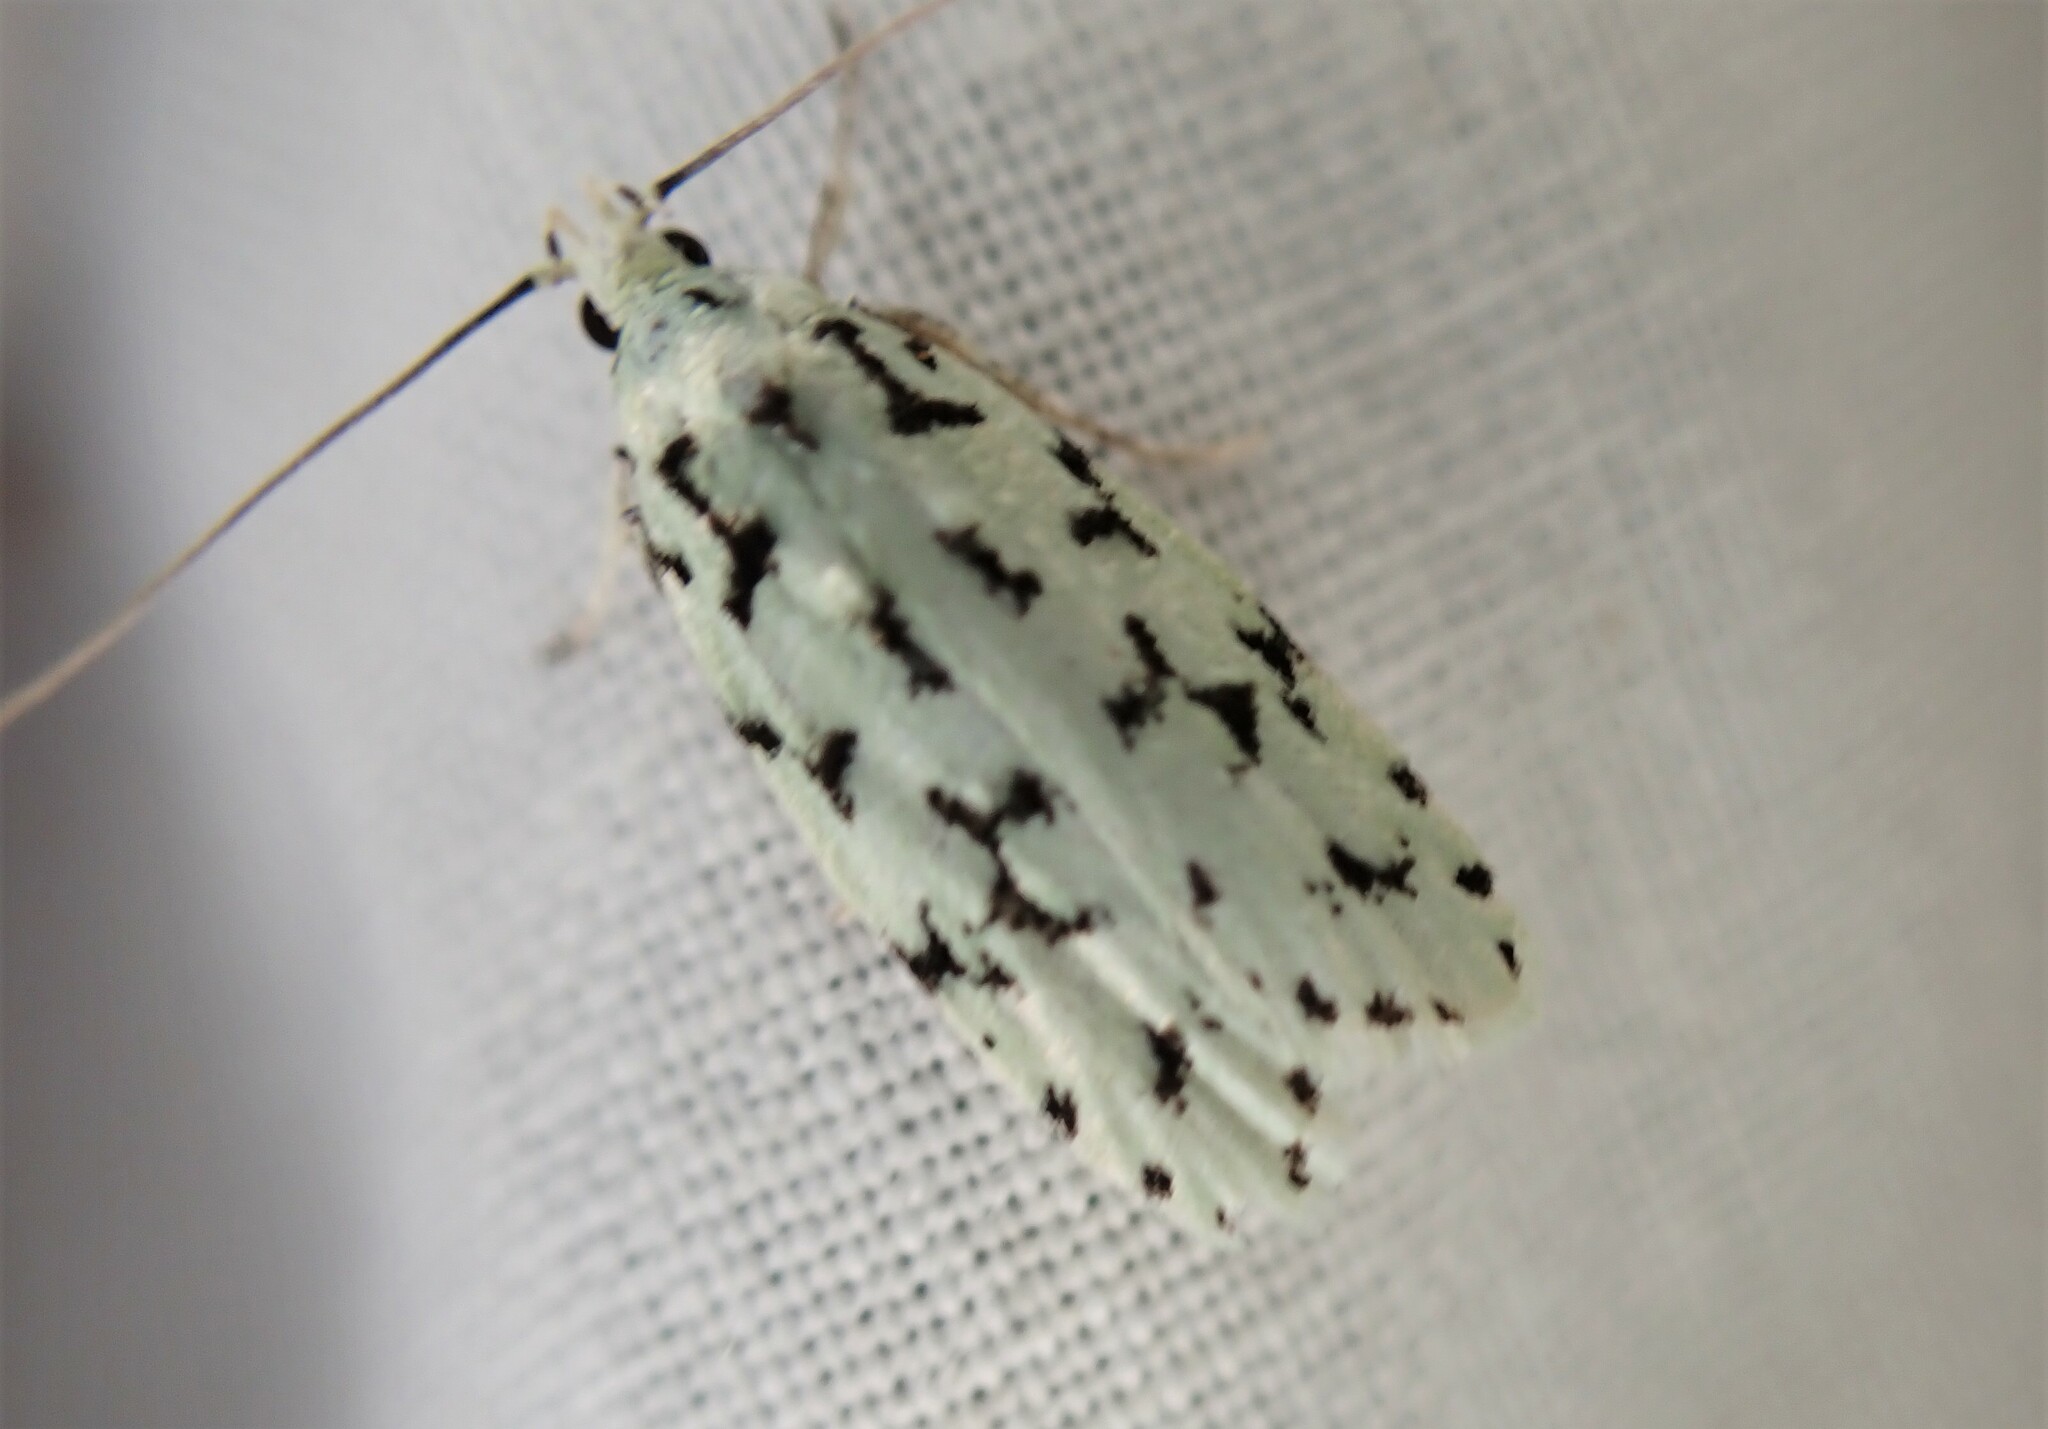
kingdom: Animalia
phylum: Arthropoda
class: Insecta
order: Lepidoptera
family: Oecophoridae
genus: Izatha
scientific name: Izatha huttoni
